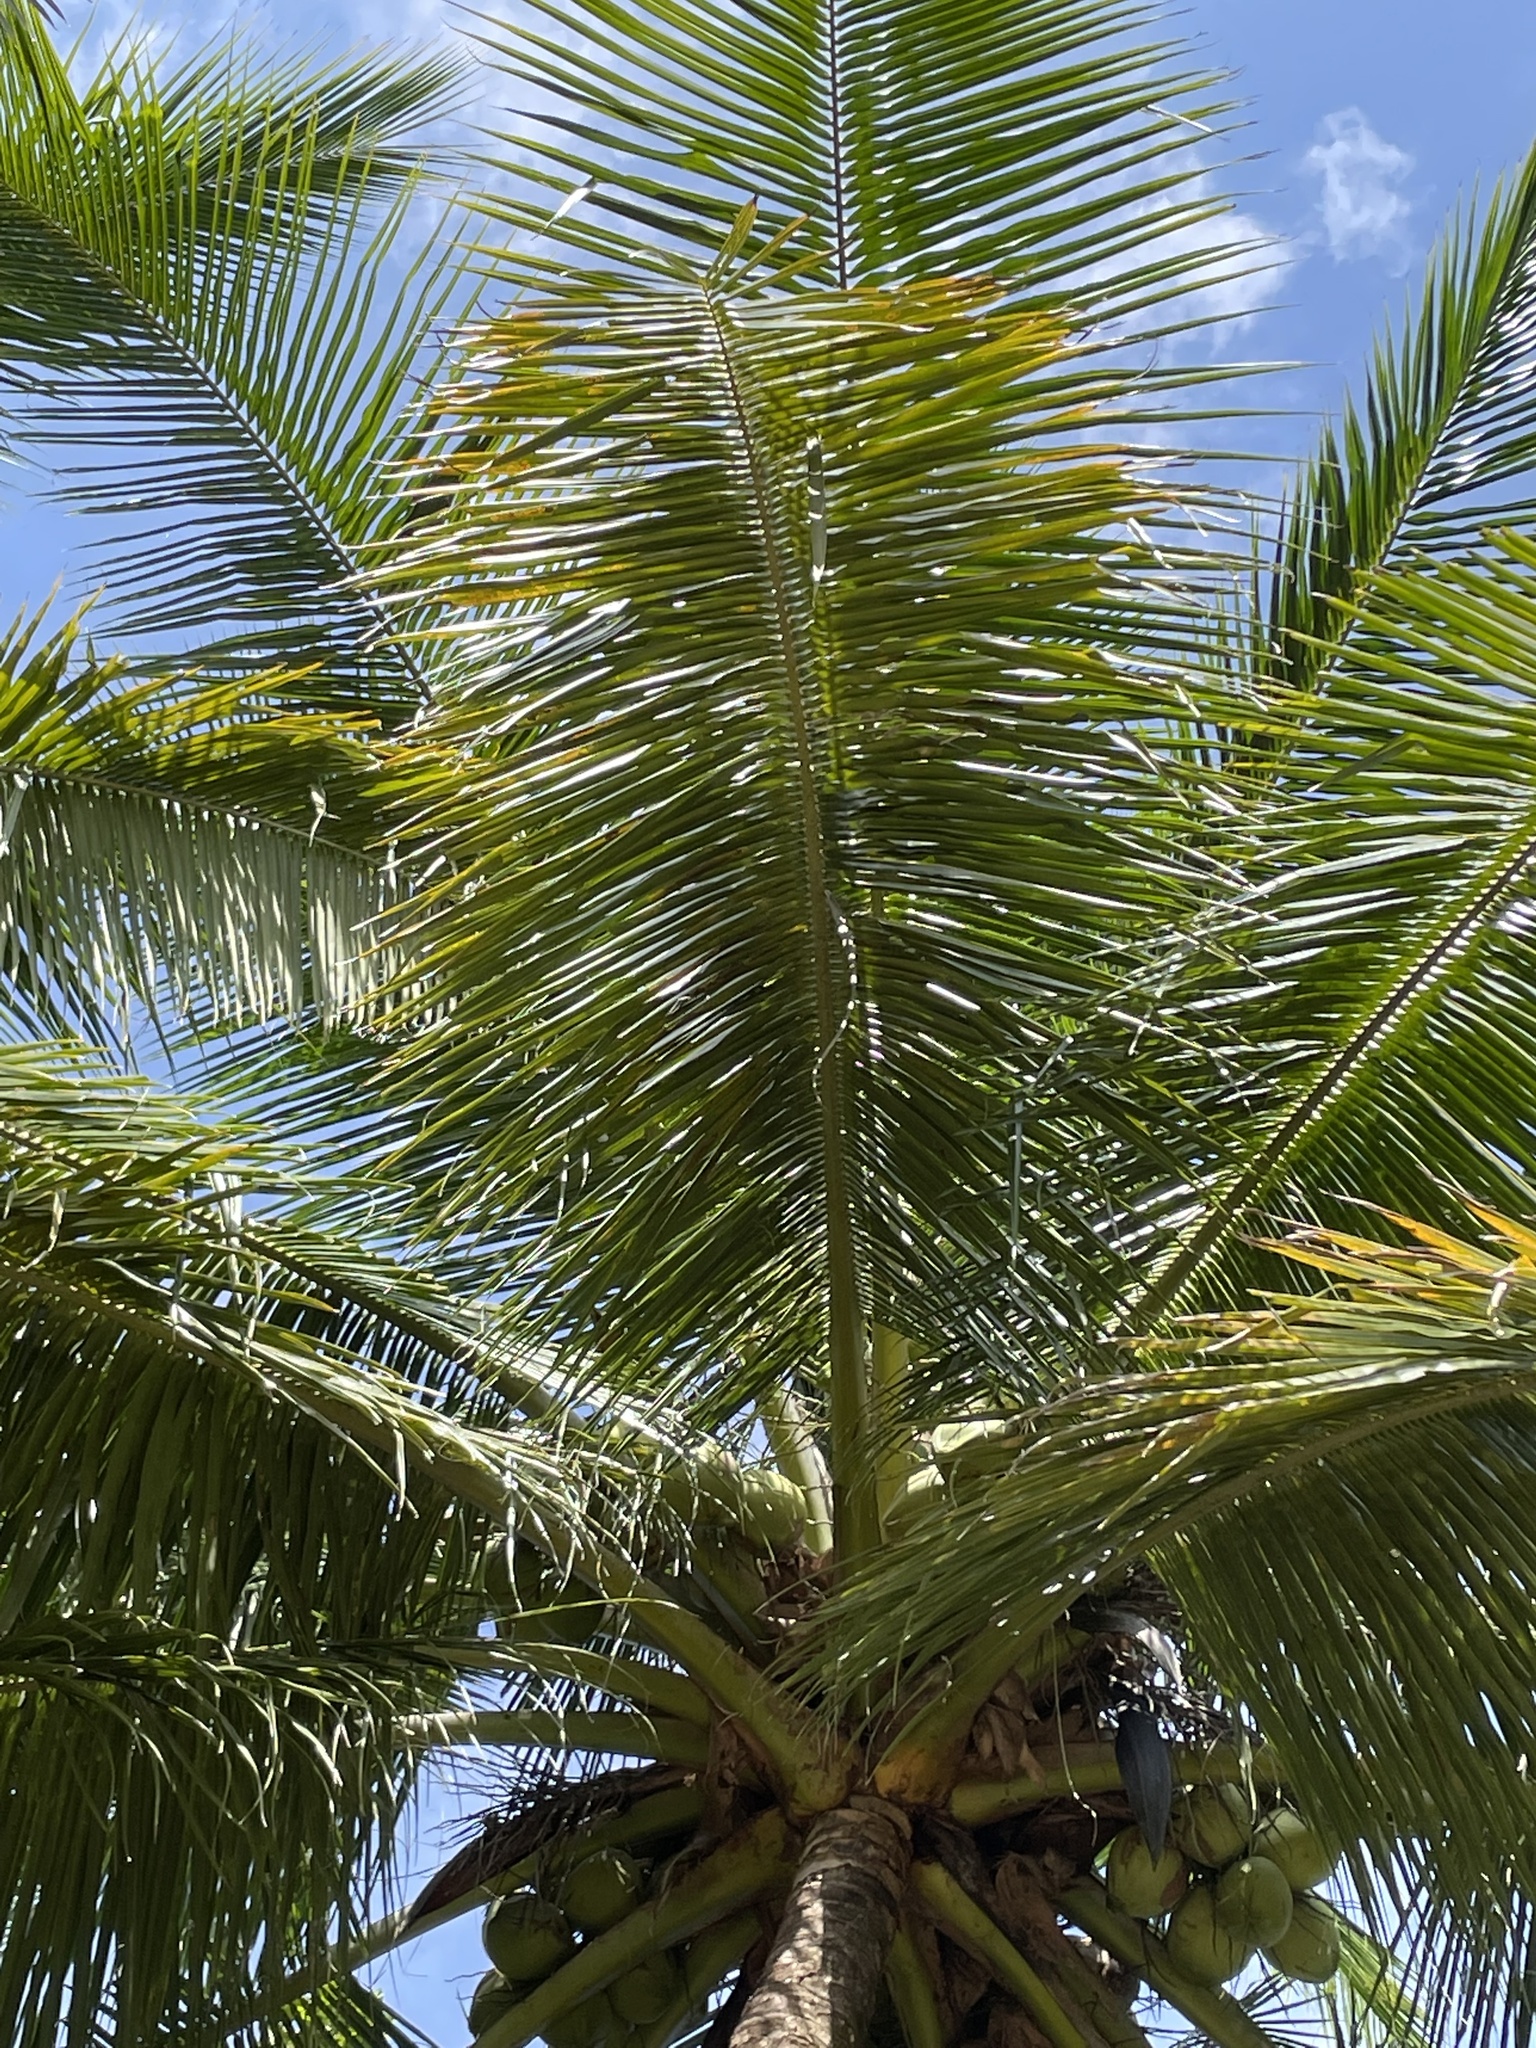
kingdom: Plantae
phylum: Tracheophyta
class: Liliopsida
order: Arecales
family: Arecaceae
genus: Cocos
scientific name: Cocos nucifera
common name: Coconut palm
